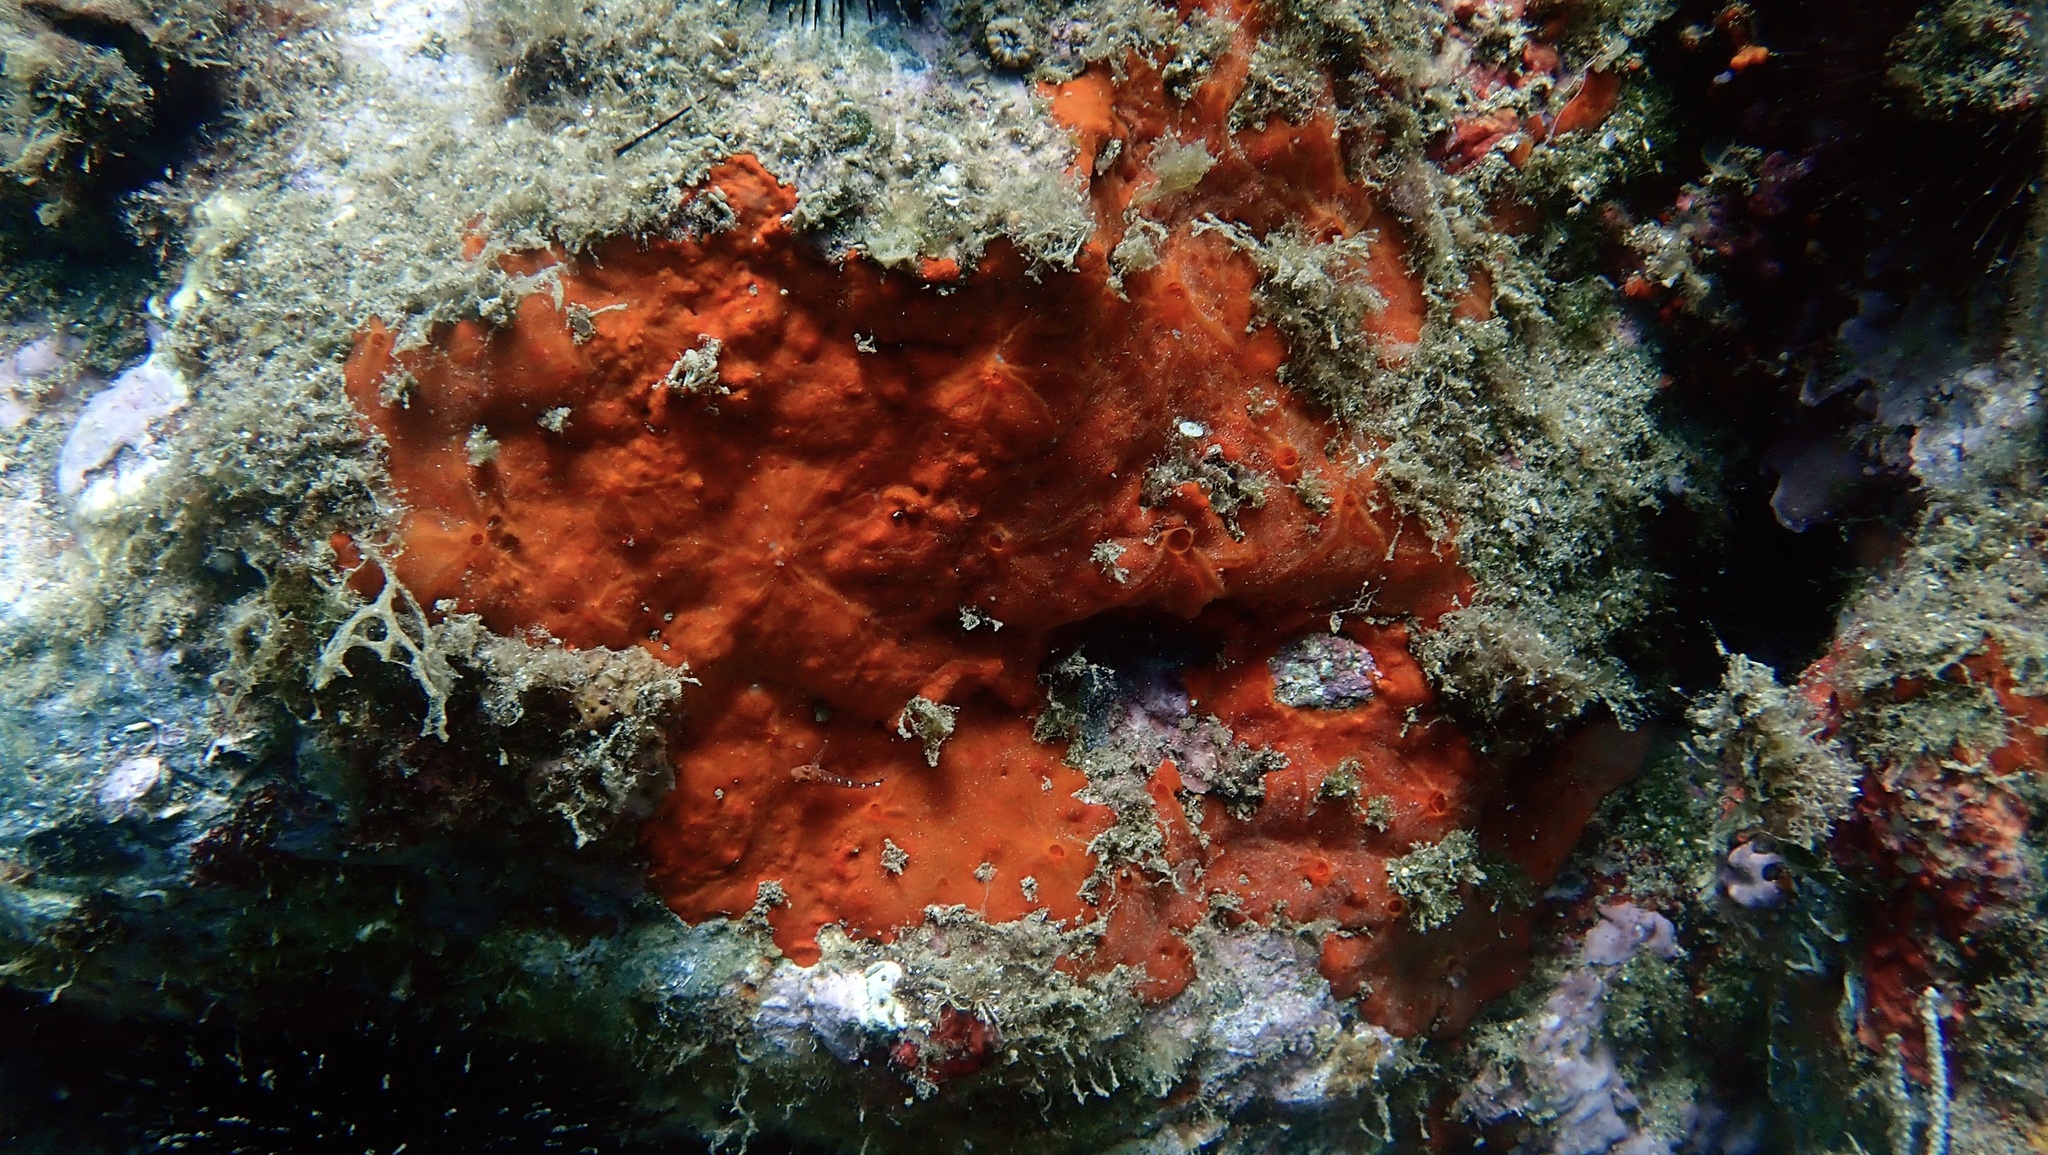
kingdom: Animalia
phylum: Porifera
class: Demospongiae
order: Poecilosclerida
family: Crambeidae
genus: Crambe
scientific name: Crambe crambe
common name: Orange-red encrusting sponge
